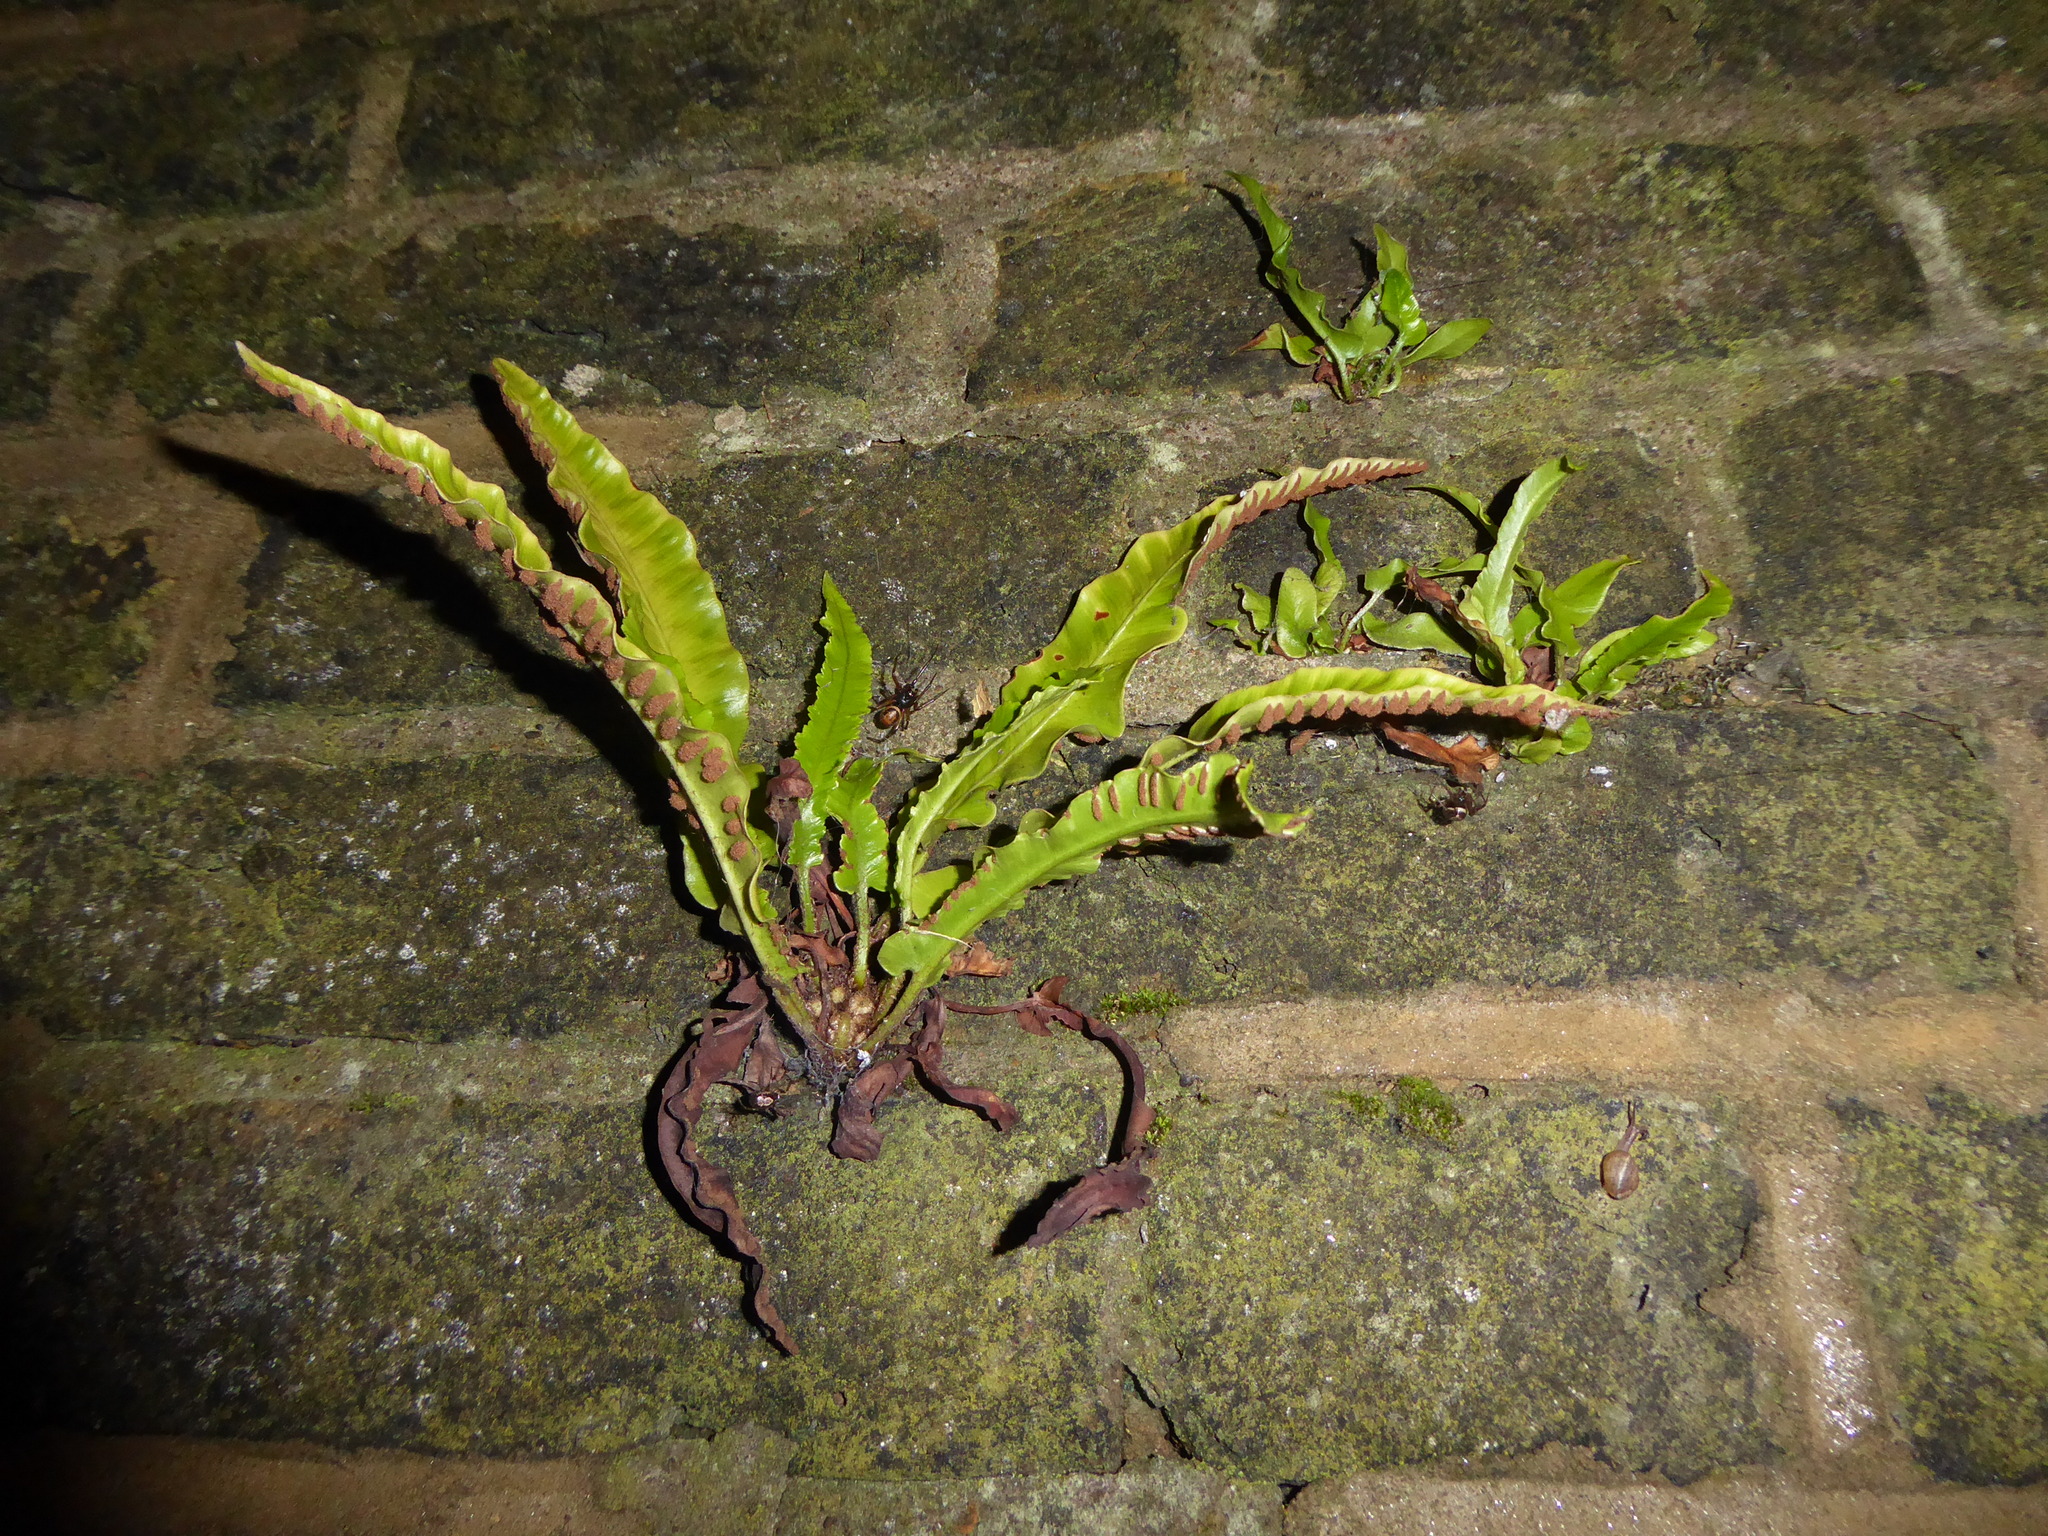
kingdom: Plantae
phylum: Tracheophyta
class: Polypodiopsida
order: Polypodiales
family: Aspleniaceae
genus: Asplenium
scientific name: Asplenium scolopendrium
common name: Hart's-tongue fern
